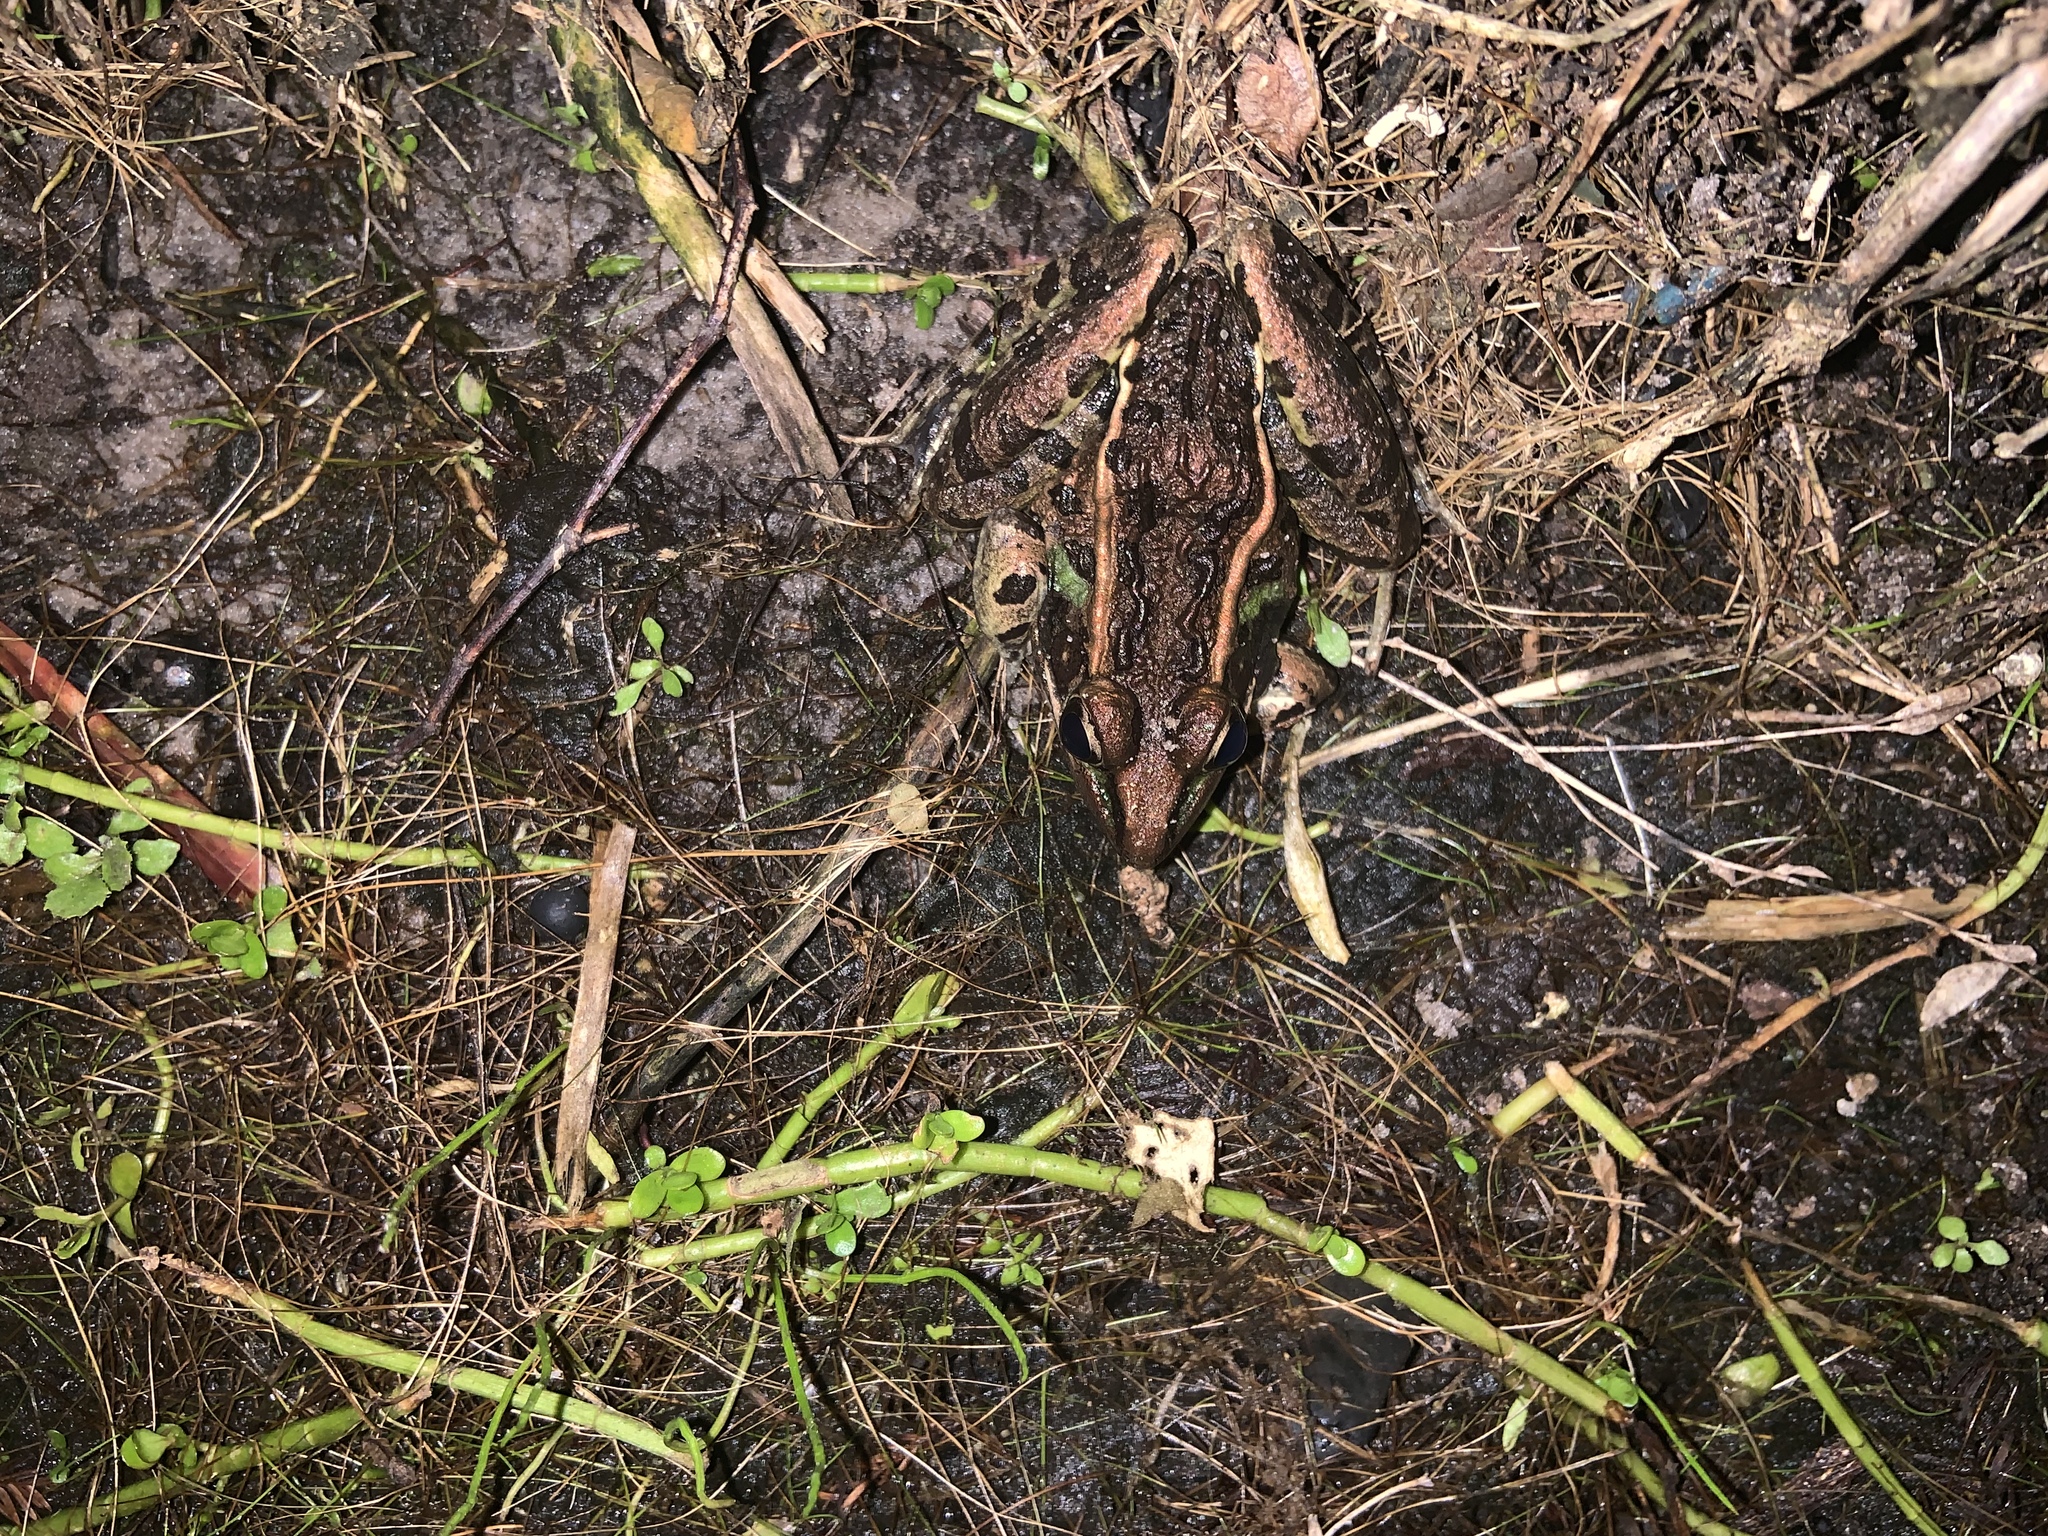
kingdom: Animalia
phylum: Chordata
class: Amphibia
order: Anura
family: Ranidae
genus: Lithobates
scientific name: Lithobates sphenocephalus
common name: Southern leopard frog
